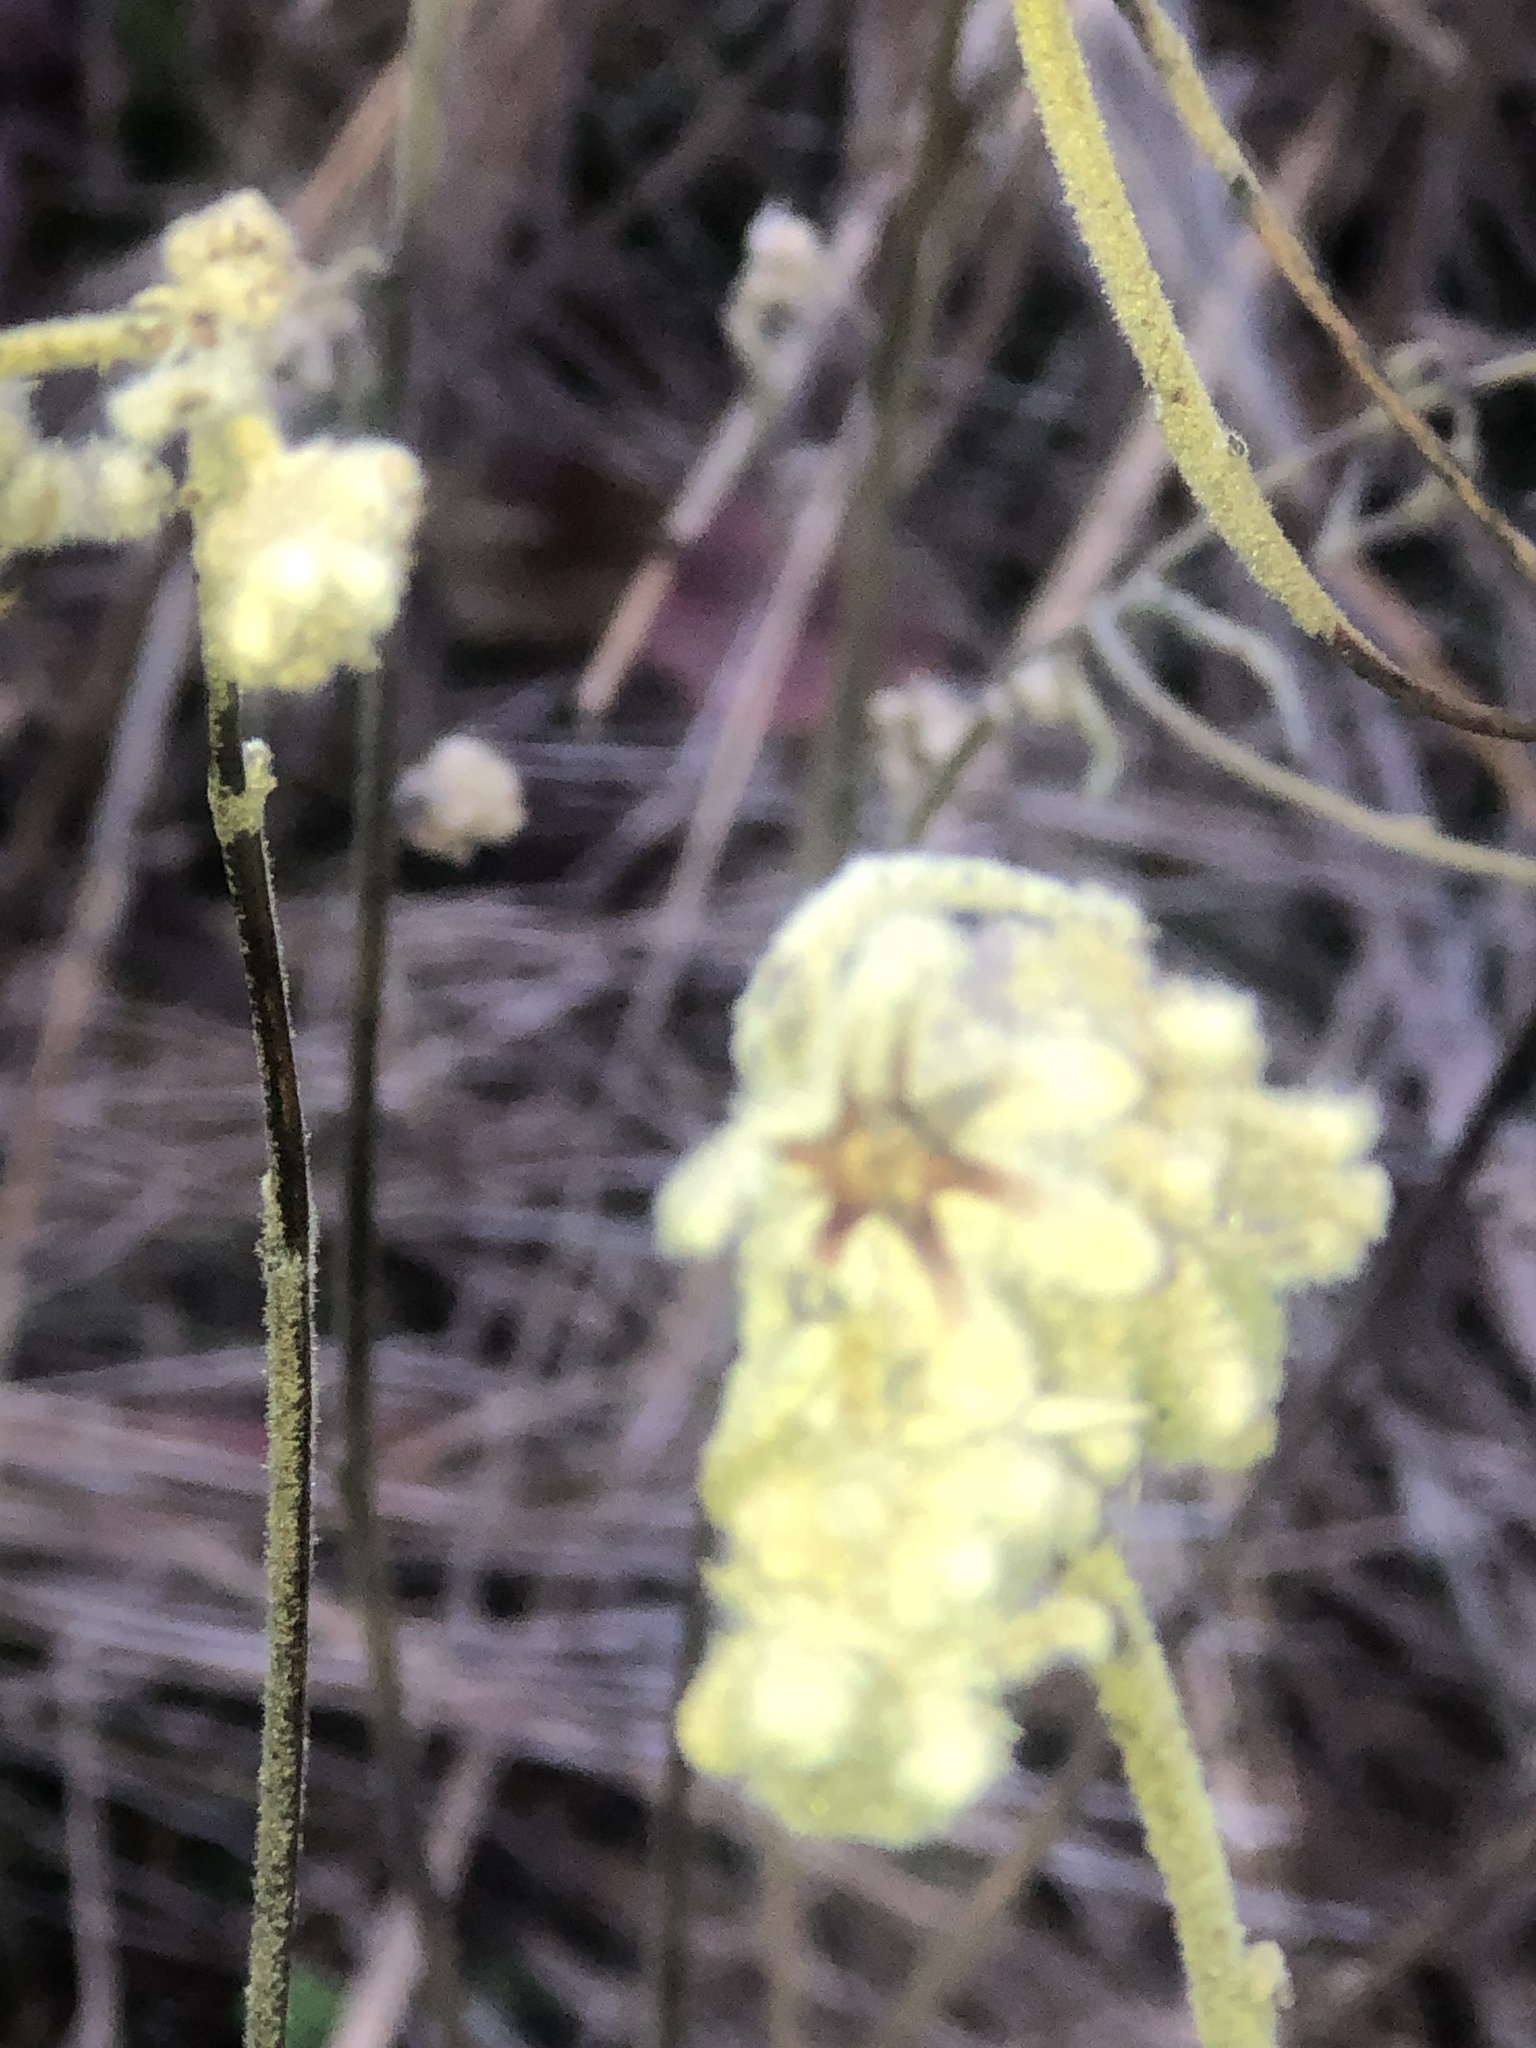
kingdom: Plantae
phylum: Tracheophyta
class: Magnoliopsida
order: Malpighiales
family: Euphorbiaceae
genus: Croton
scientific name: Croton lindheimeri
